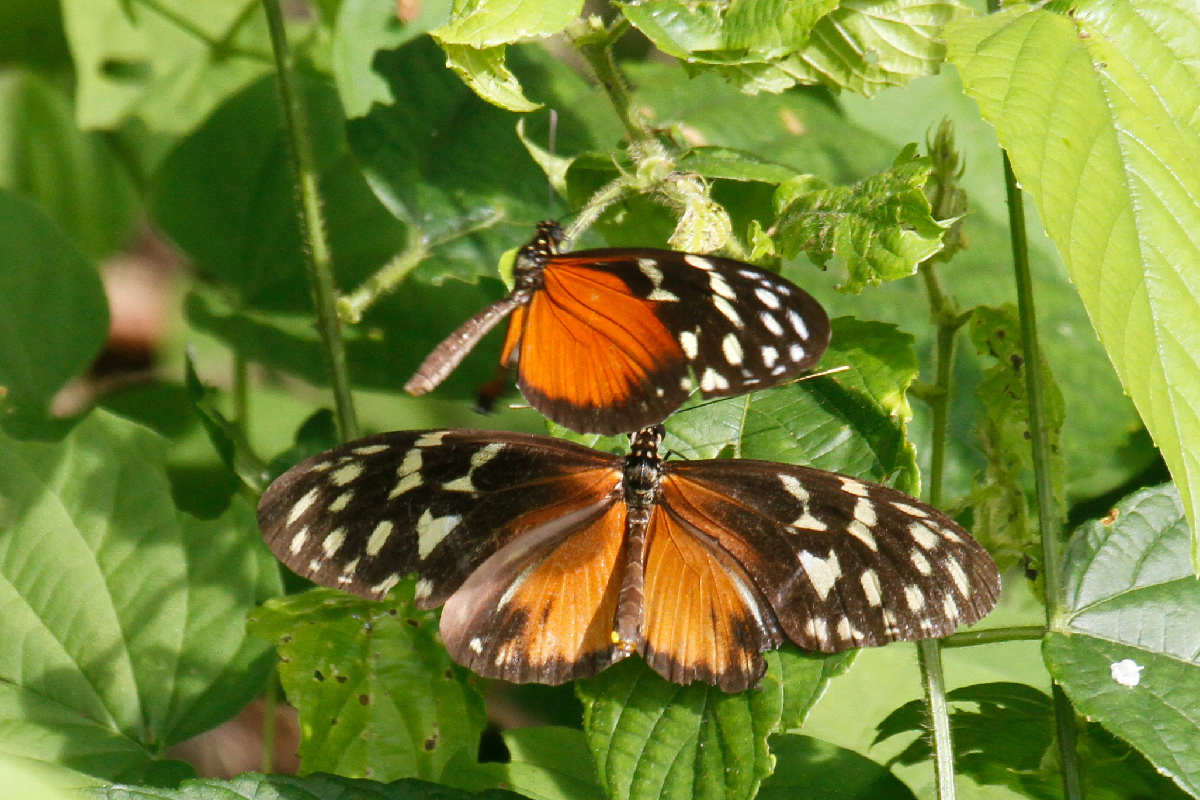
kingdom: Animalia
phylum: Arthropoda
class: Insecta
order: Lepidoptera
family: Nymphalidae
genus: Heliconius
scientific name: Heliconius hecale
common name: Tiger longwing
